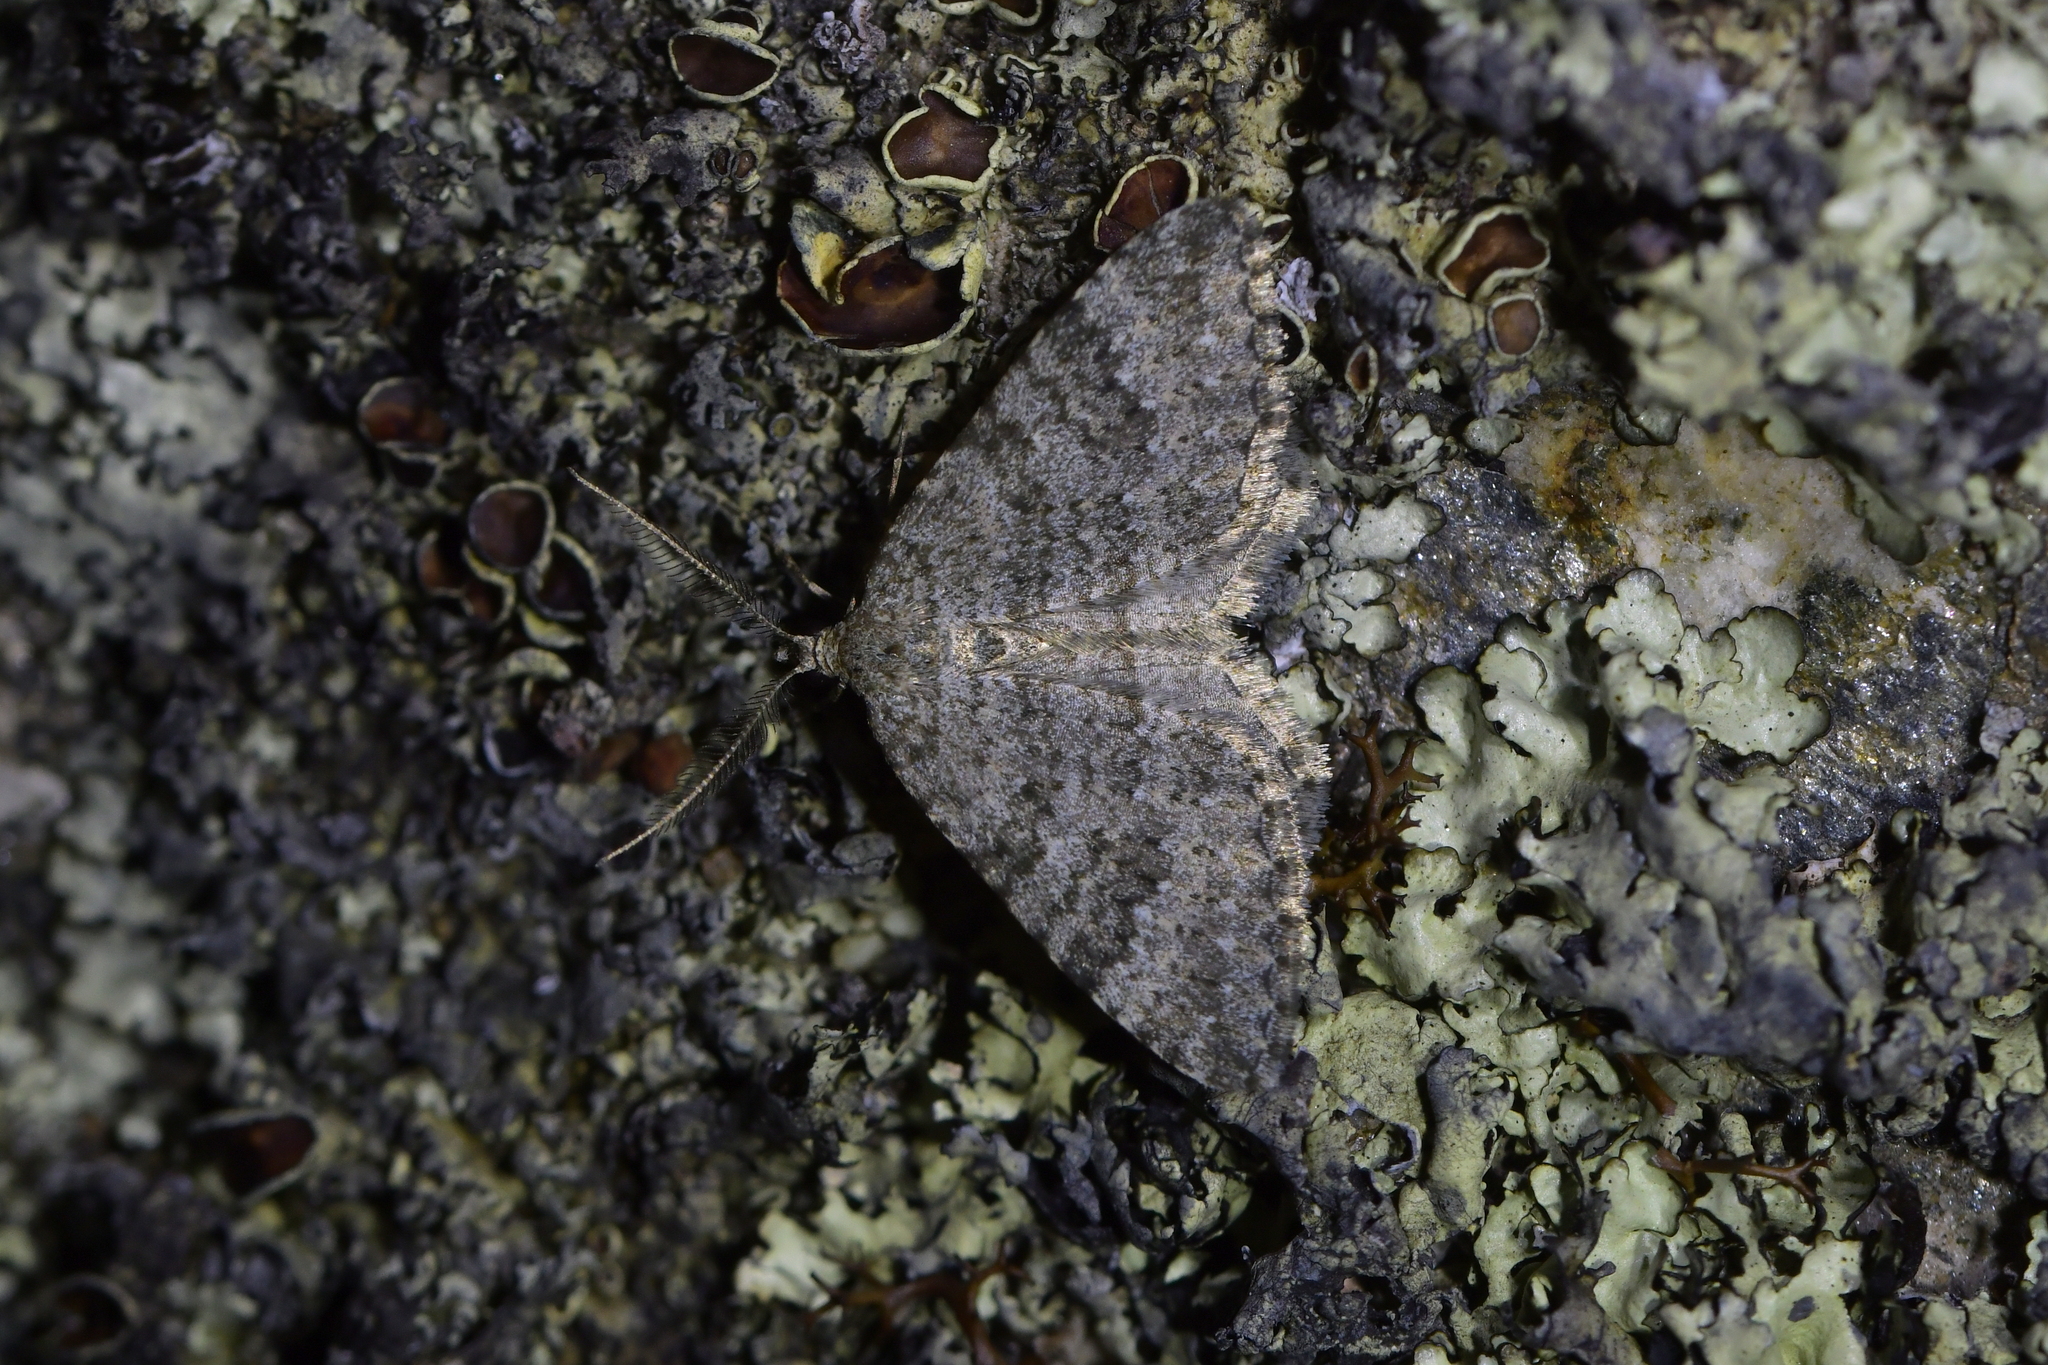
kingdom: Animalia
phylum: Arthropoda
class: Insecta
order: Lepidoptera
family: Geometridae
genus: Helastia
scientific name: Helastia corcularia
